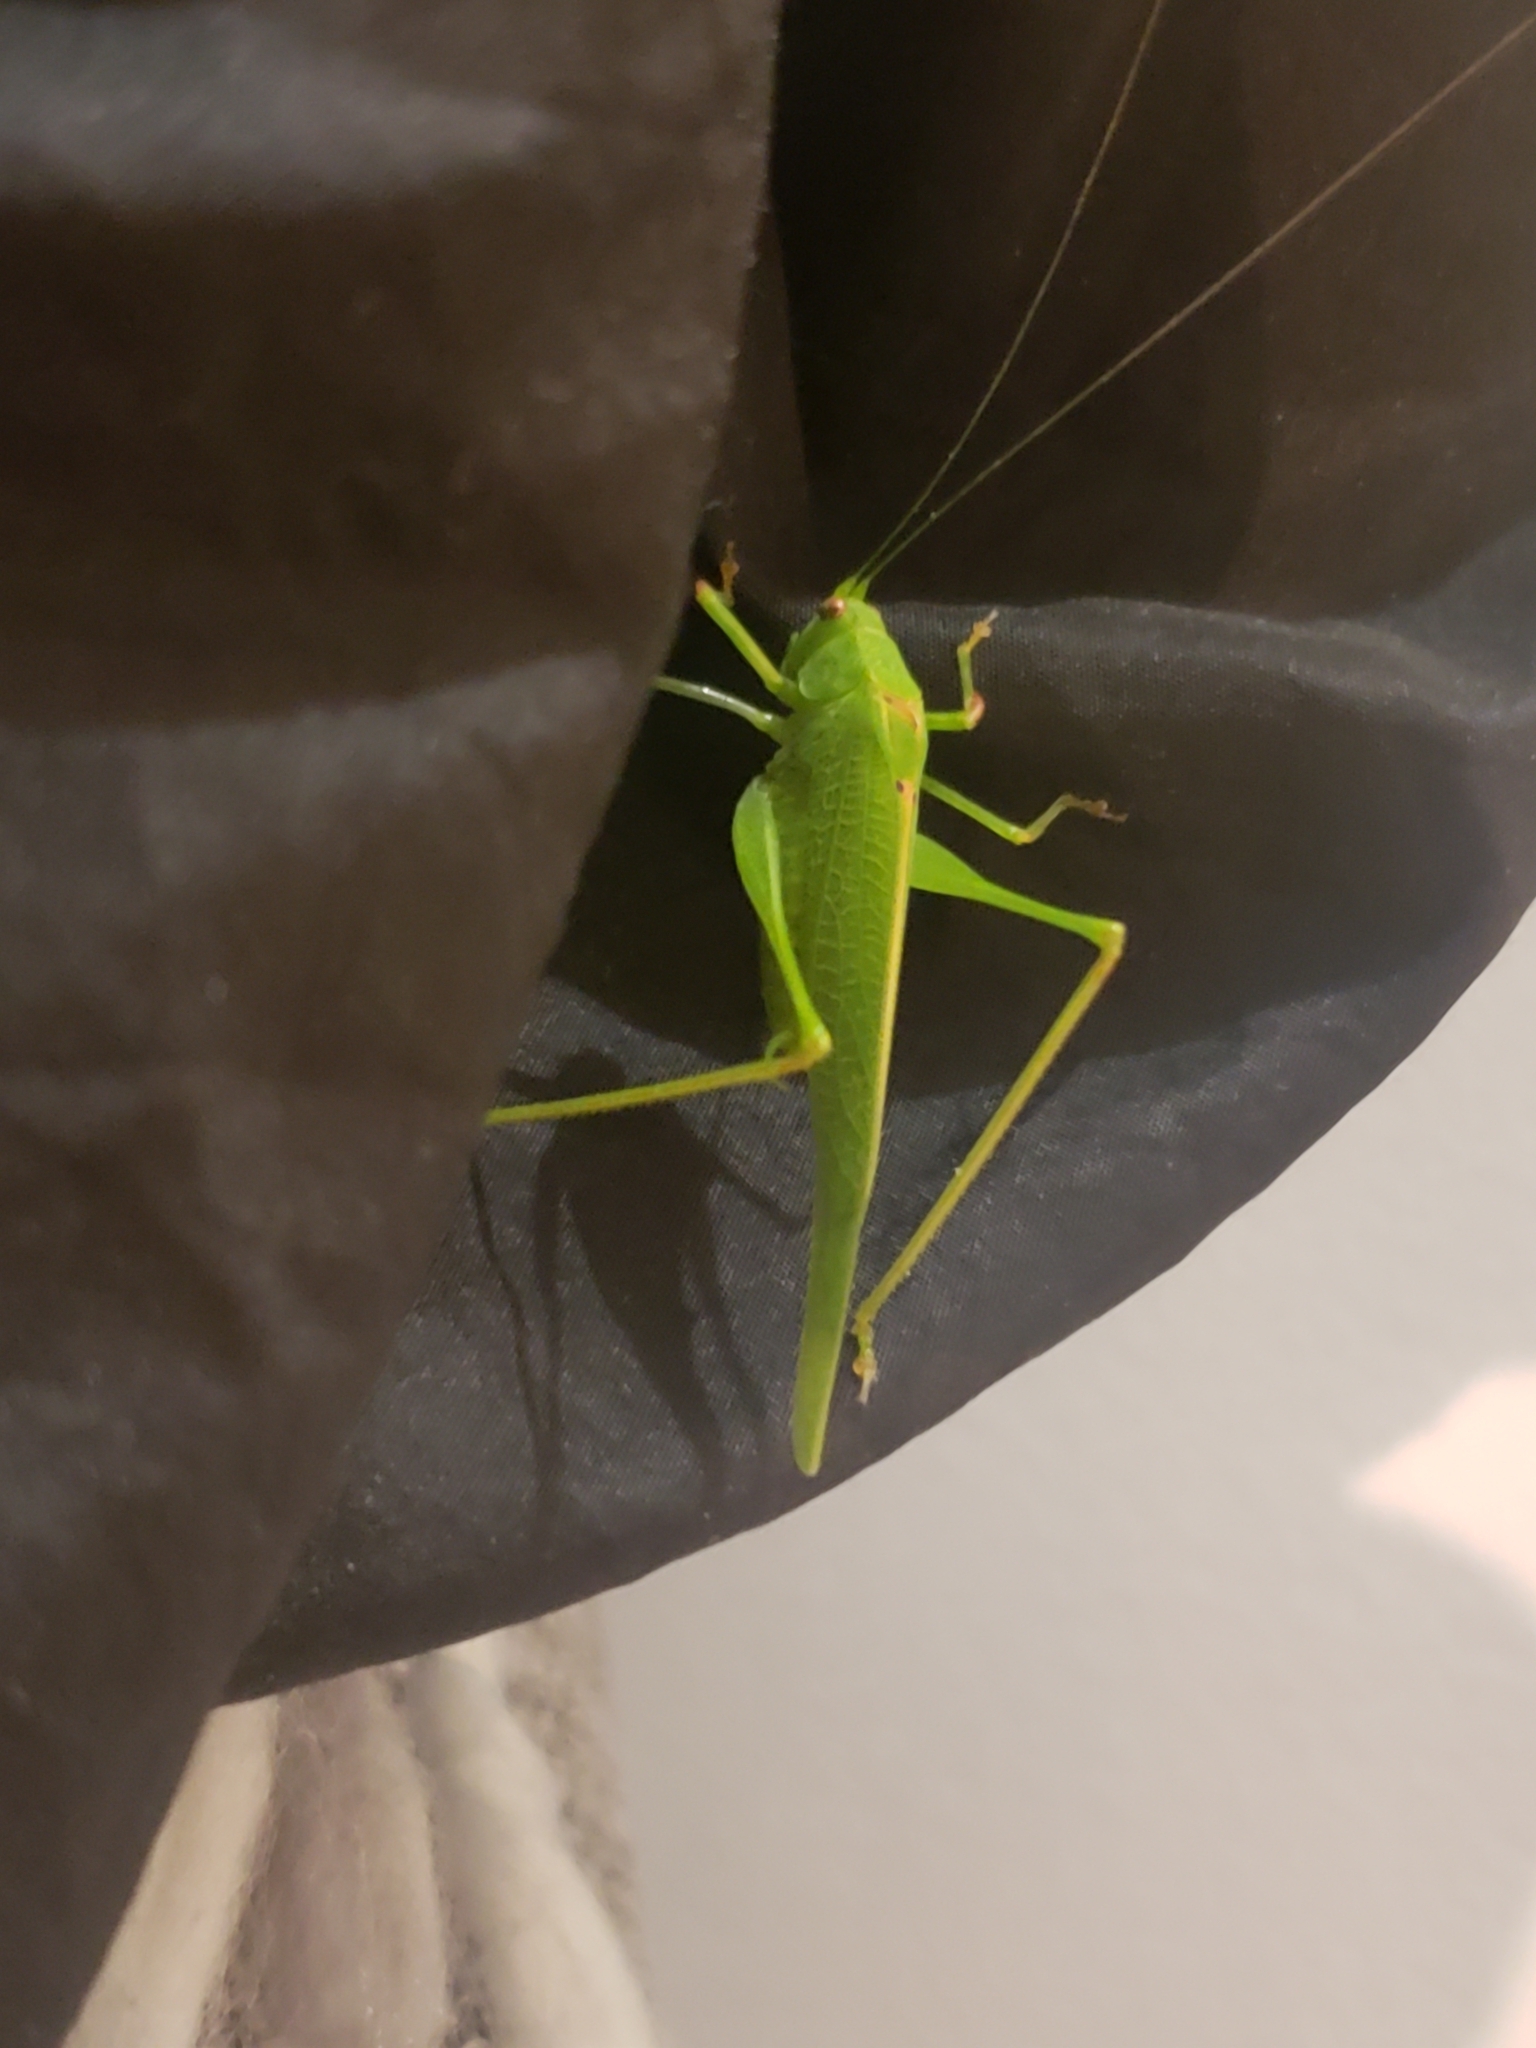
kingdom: Animalia
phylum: Arthropoda
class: Insecta
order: Orthoptera
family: Tettigoniidae
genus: Phaneroptera
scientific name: Phaneroptera nana
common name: Southern sickle bush-cricket
